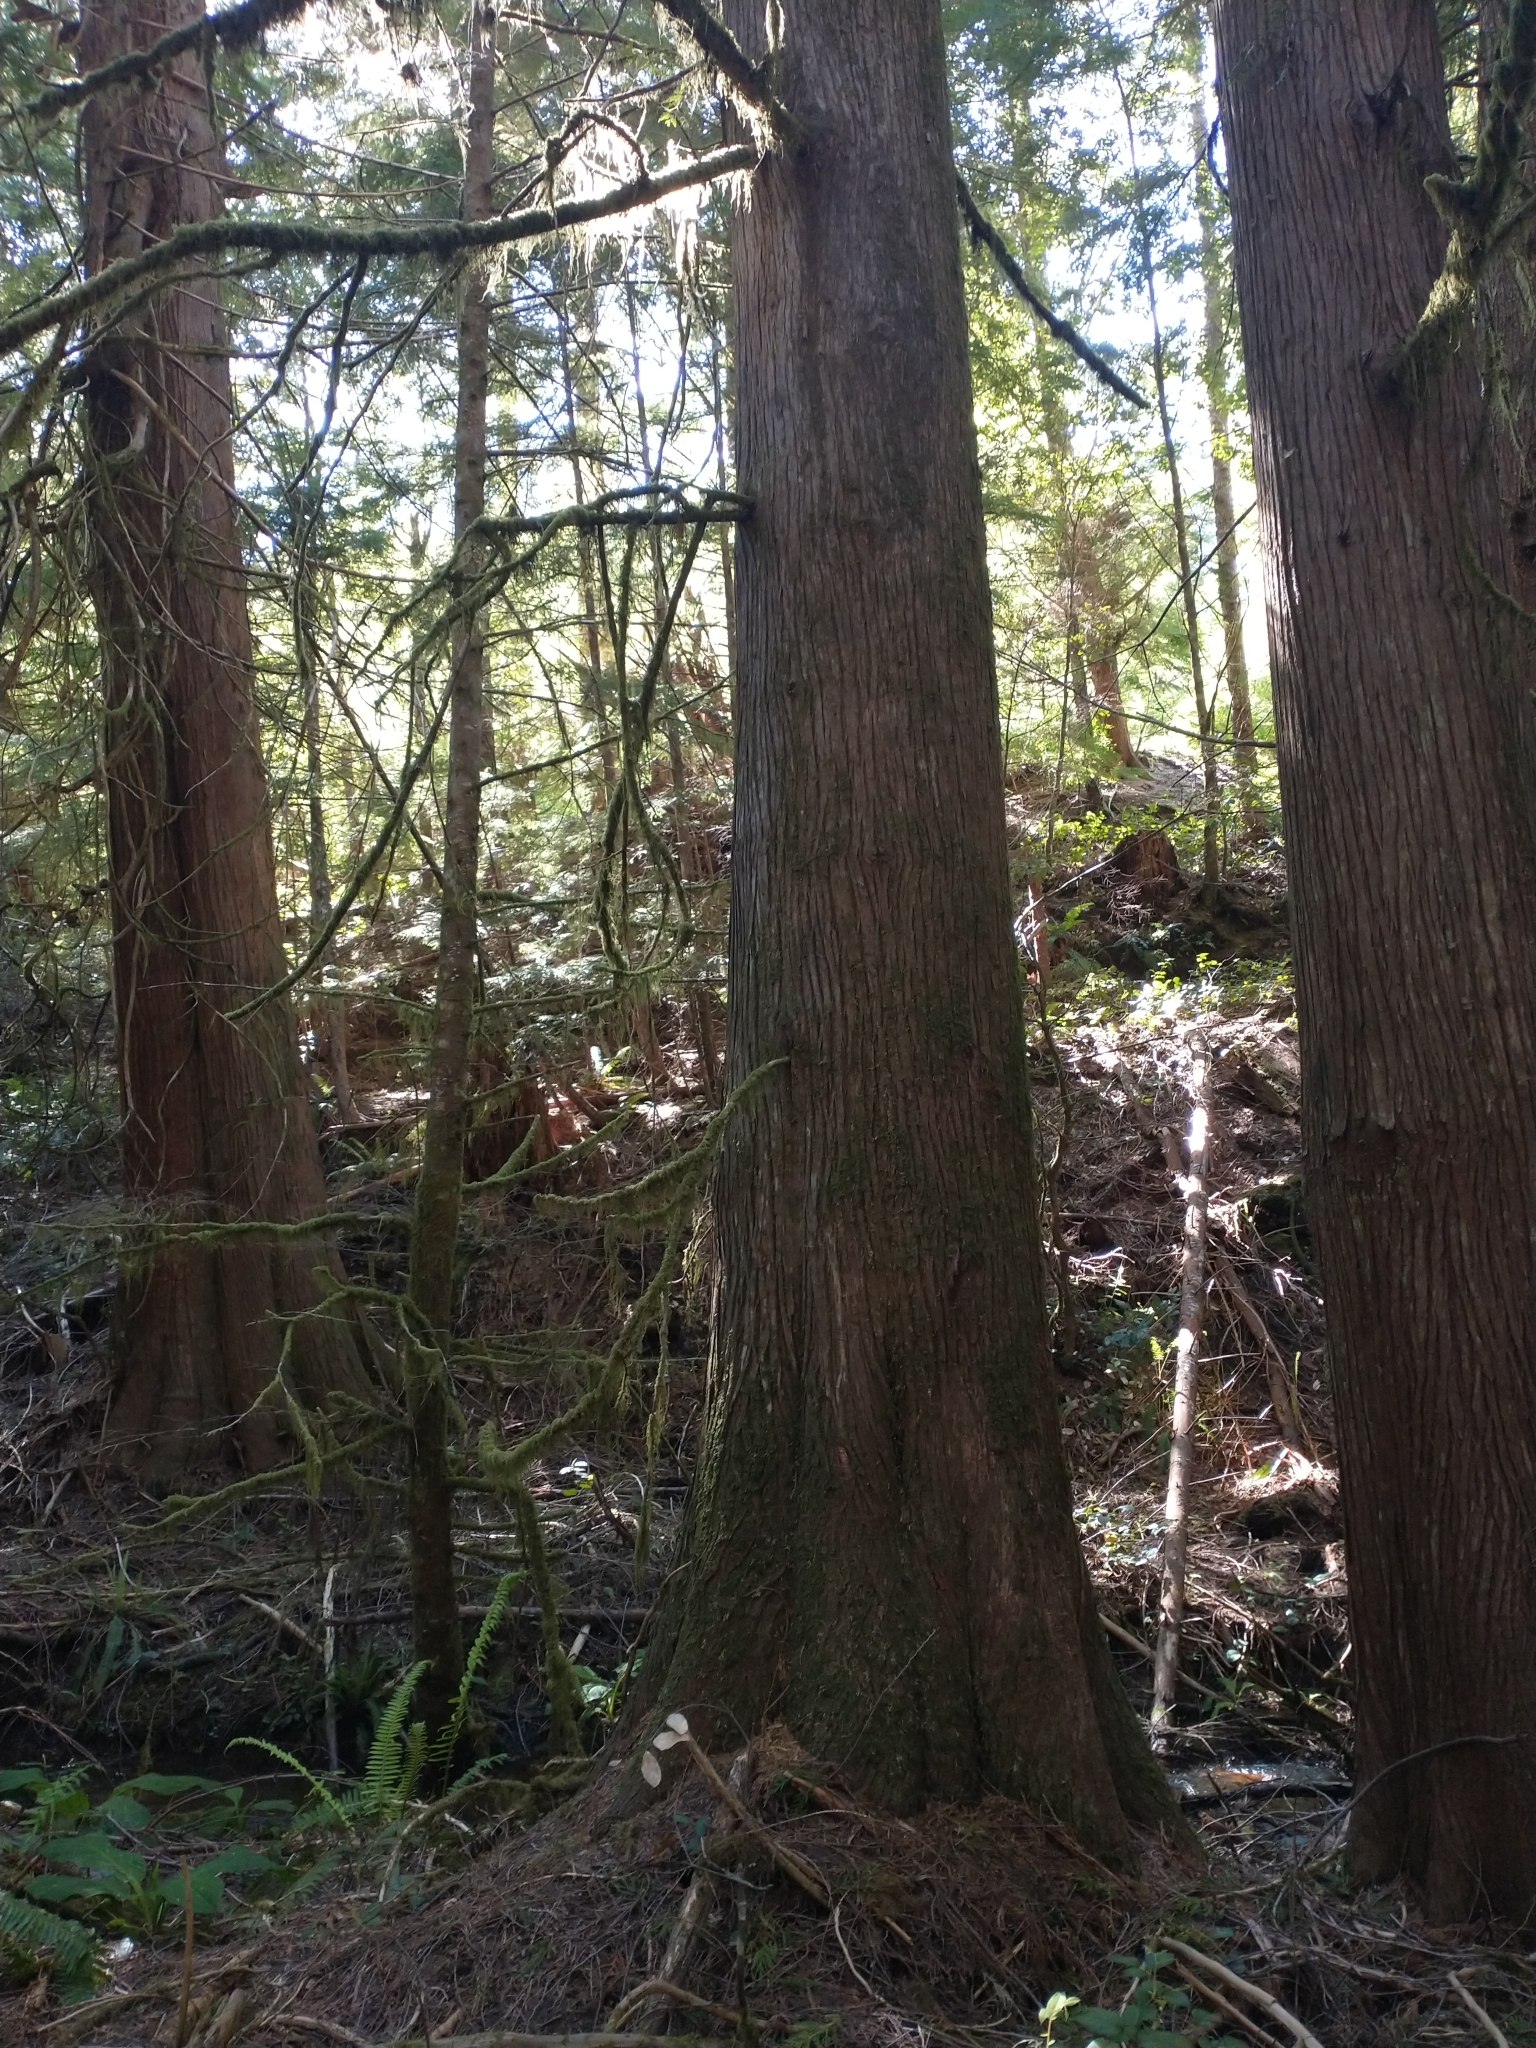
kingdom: Plantae
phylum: Tracheophyta
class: Pinopsida
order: Pinales
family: Cupressaceae
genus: Thuja
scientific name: Thuja plicata
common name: Western red-cedar
